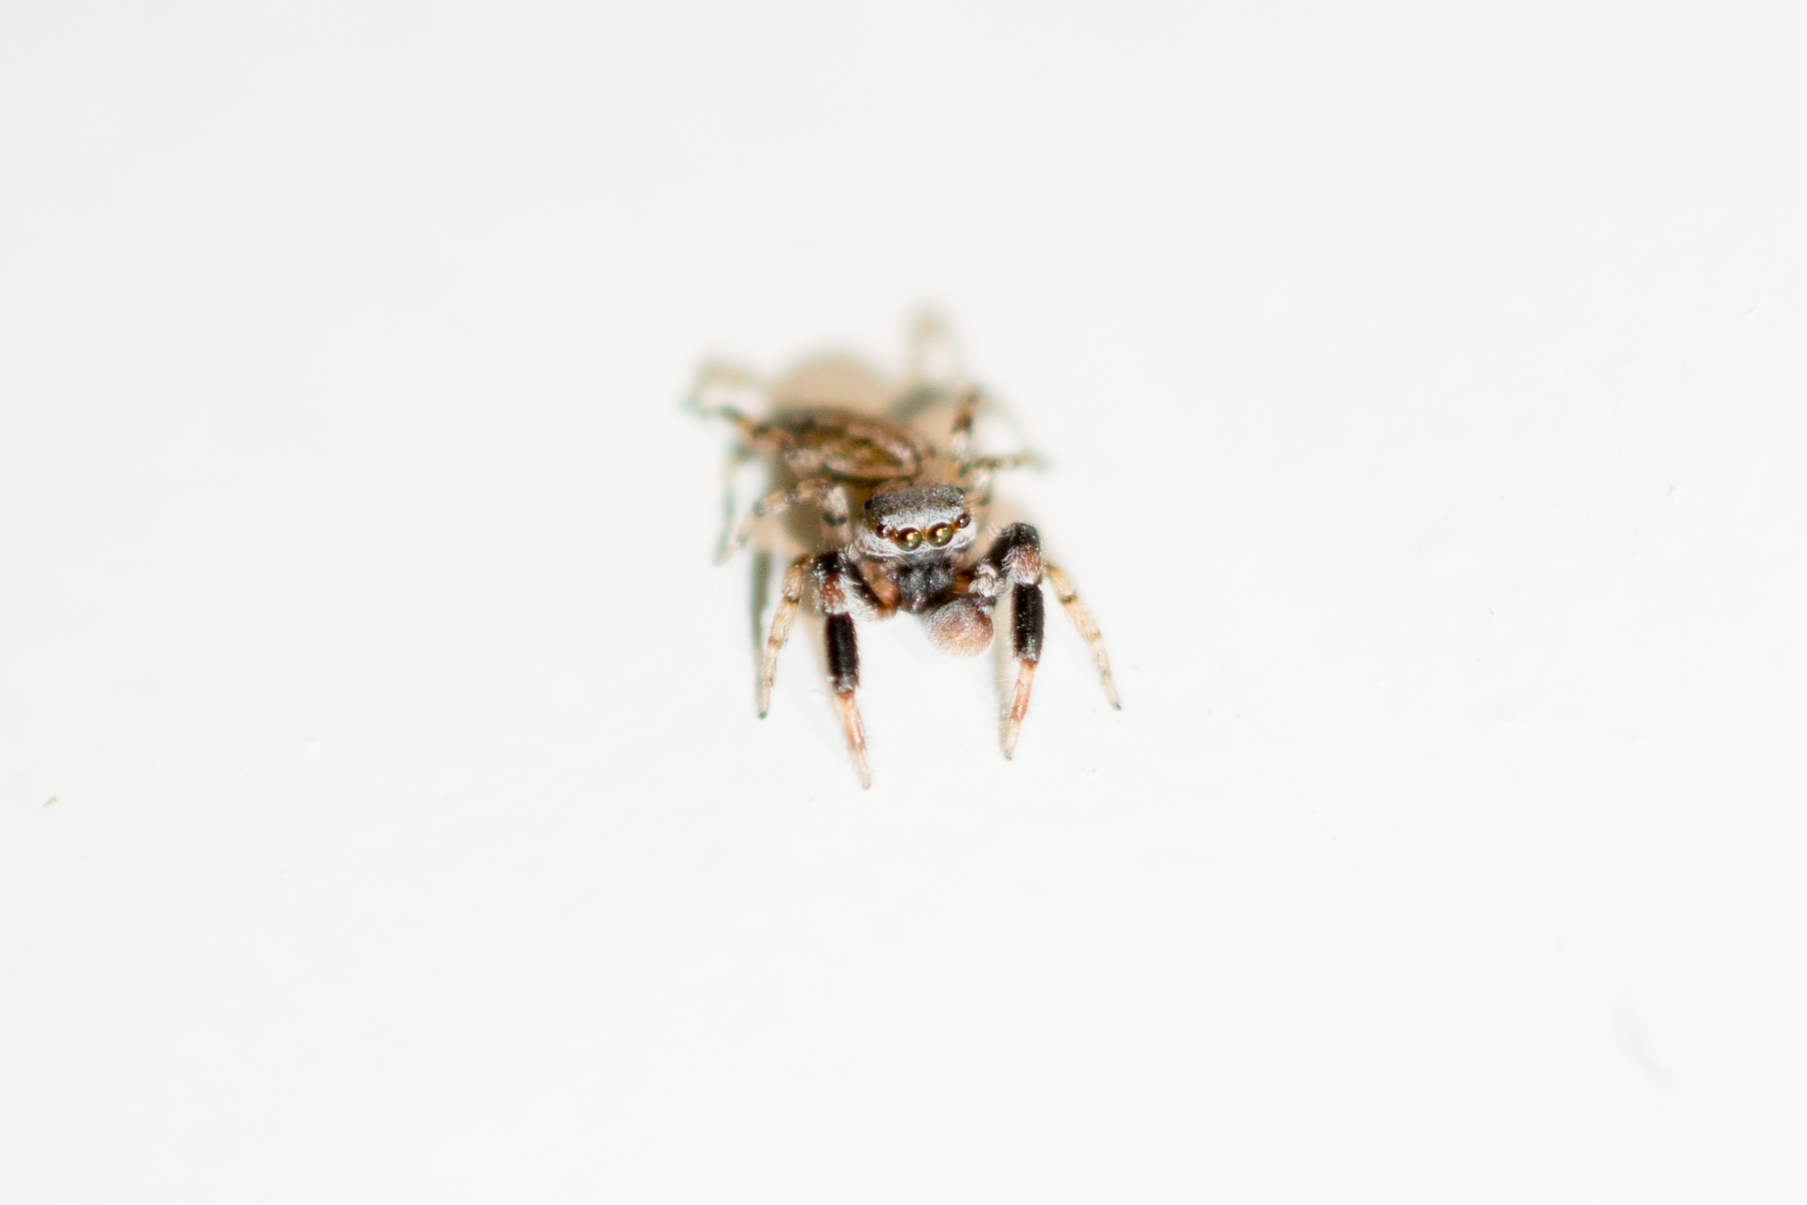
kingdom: Animalia
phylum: Arthropoda
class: Arachnida
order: Araneae
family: Salticidae
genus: Marpissa
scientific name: Marpissa lineata
